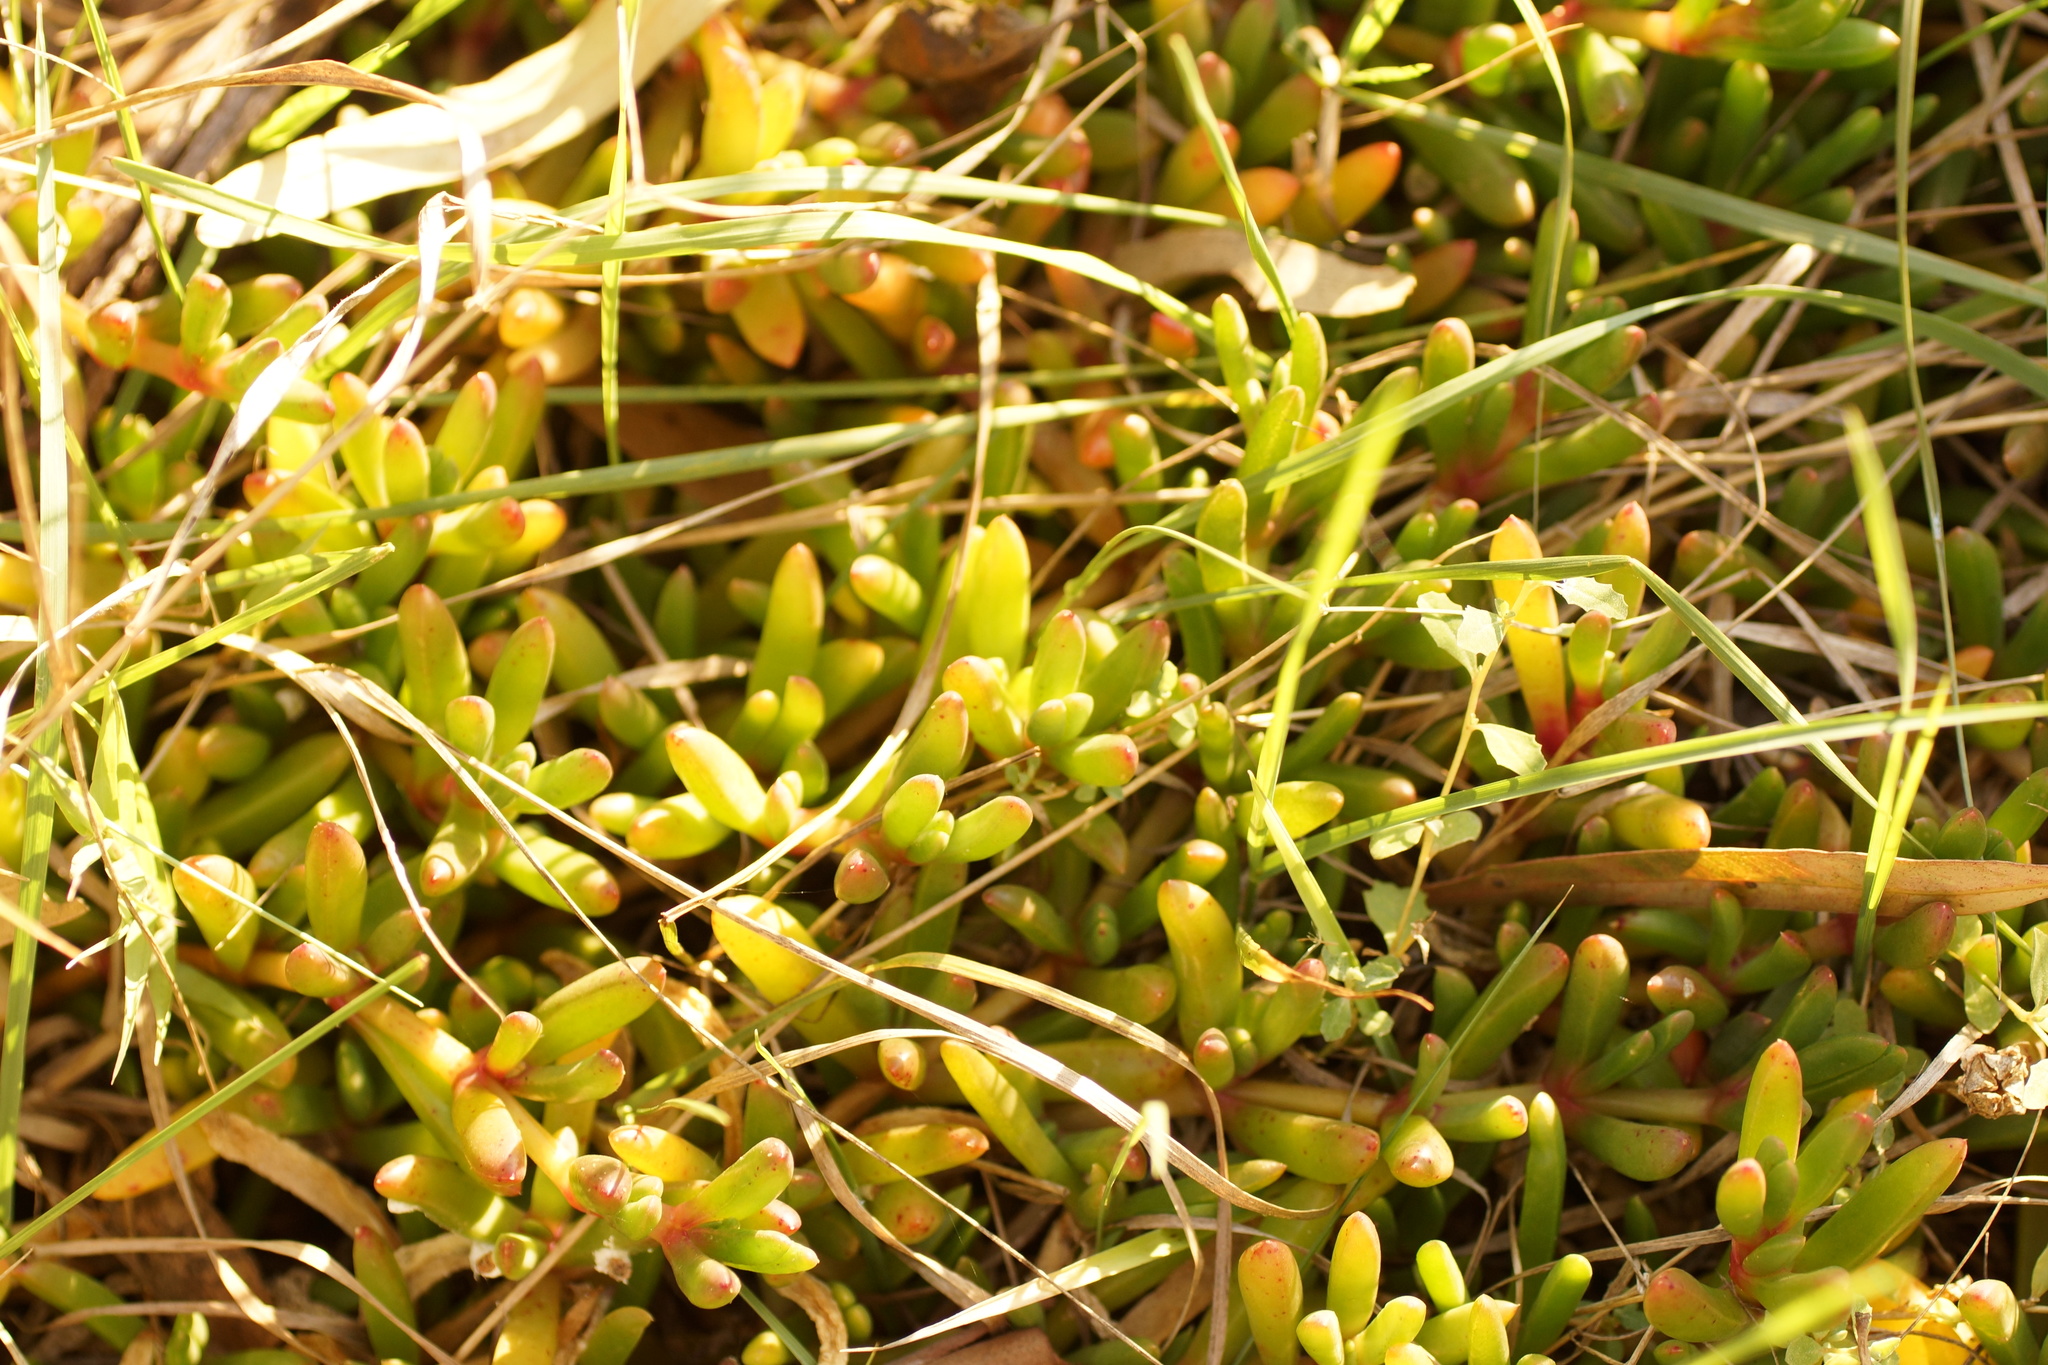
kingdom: Plantae
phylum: Tracheophyta
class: Magnoliopsida
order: Caryophyllales
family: Aizoaceae
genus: Disphyma
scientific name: Disphyma crassifolium
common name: Purple dewplant
